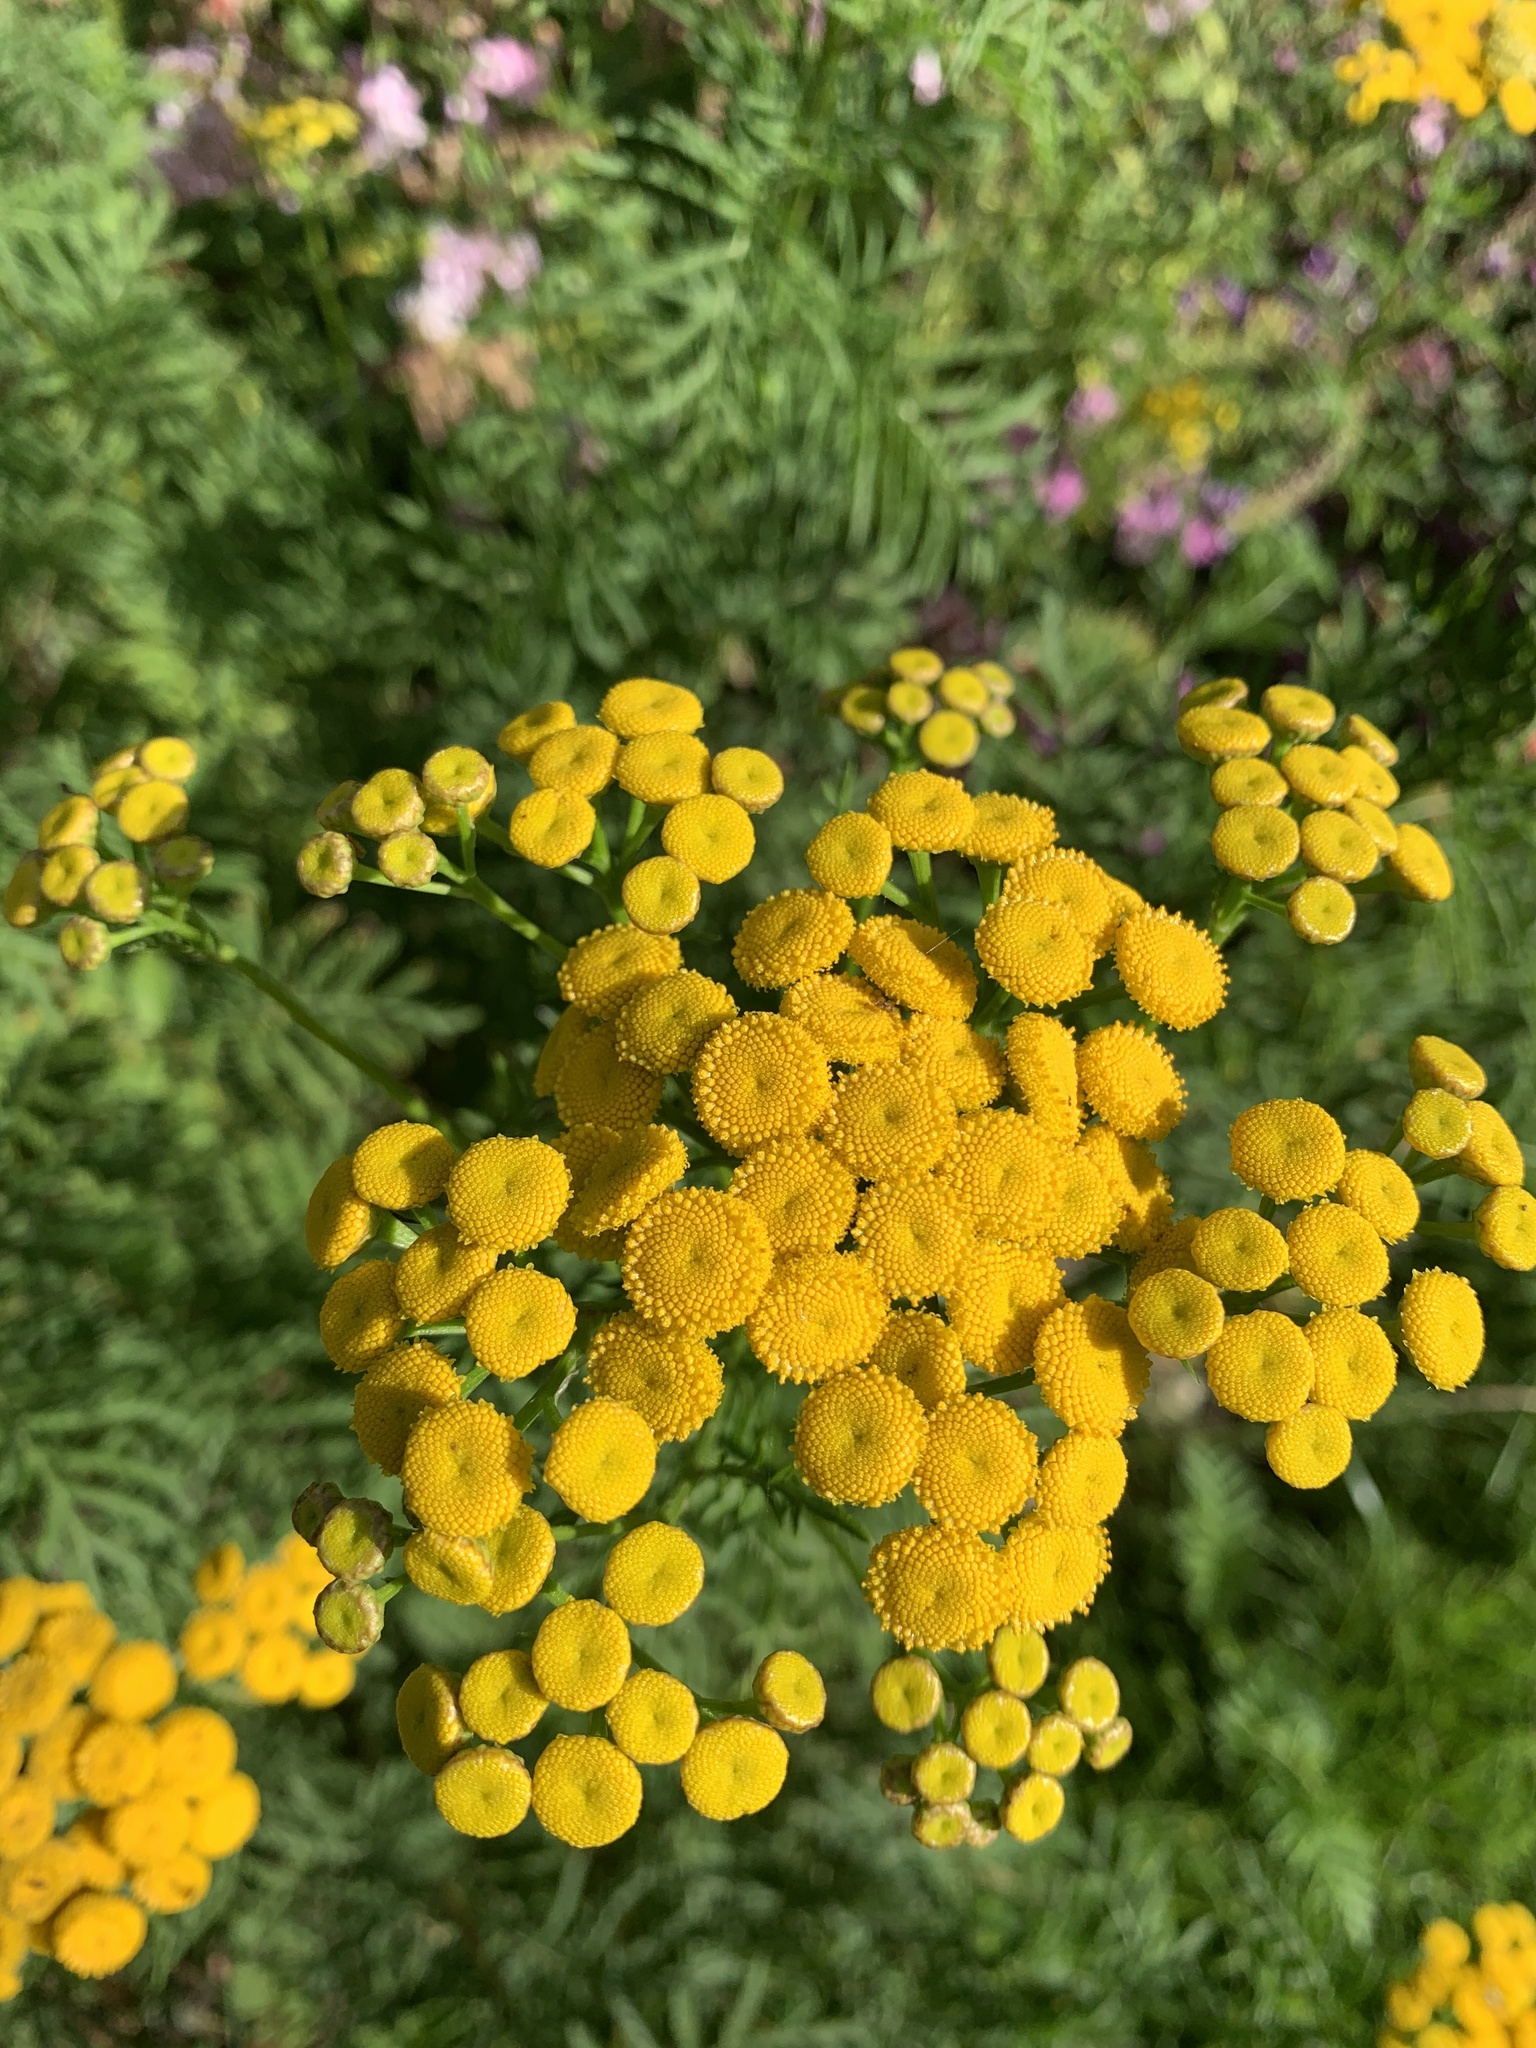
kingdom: Plantae
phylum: Tracheophyta
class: Magnoliopsida
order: Asterales
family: Asteraceae
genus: Tanacetum
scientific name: Tanacetum vulgare
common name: Common tansy
